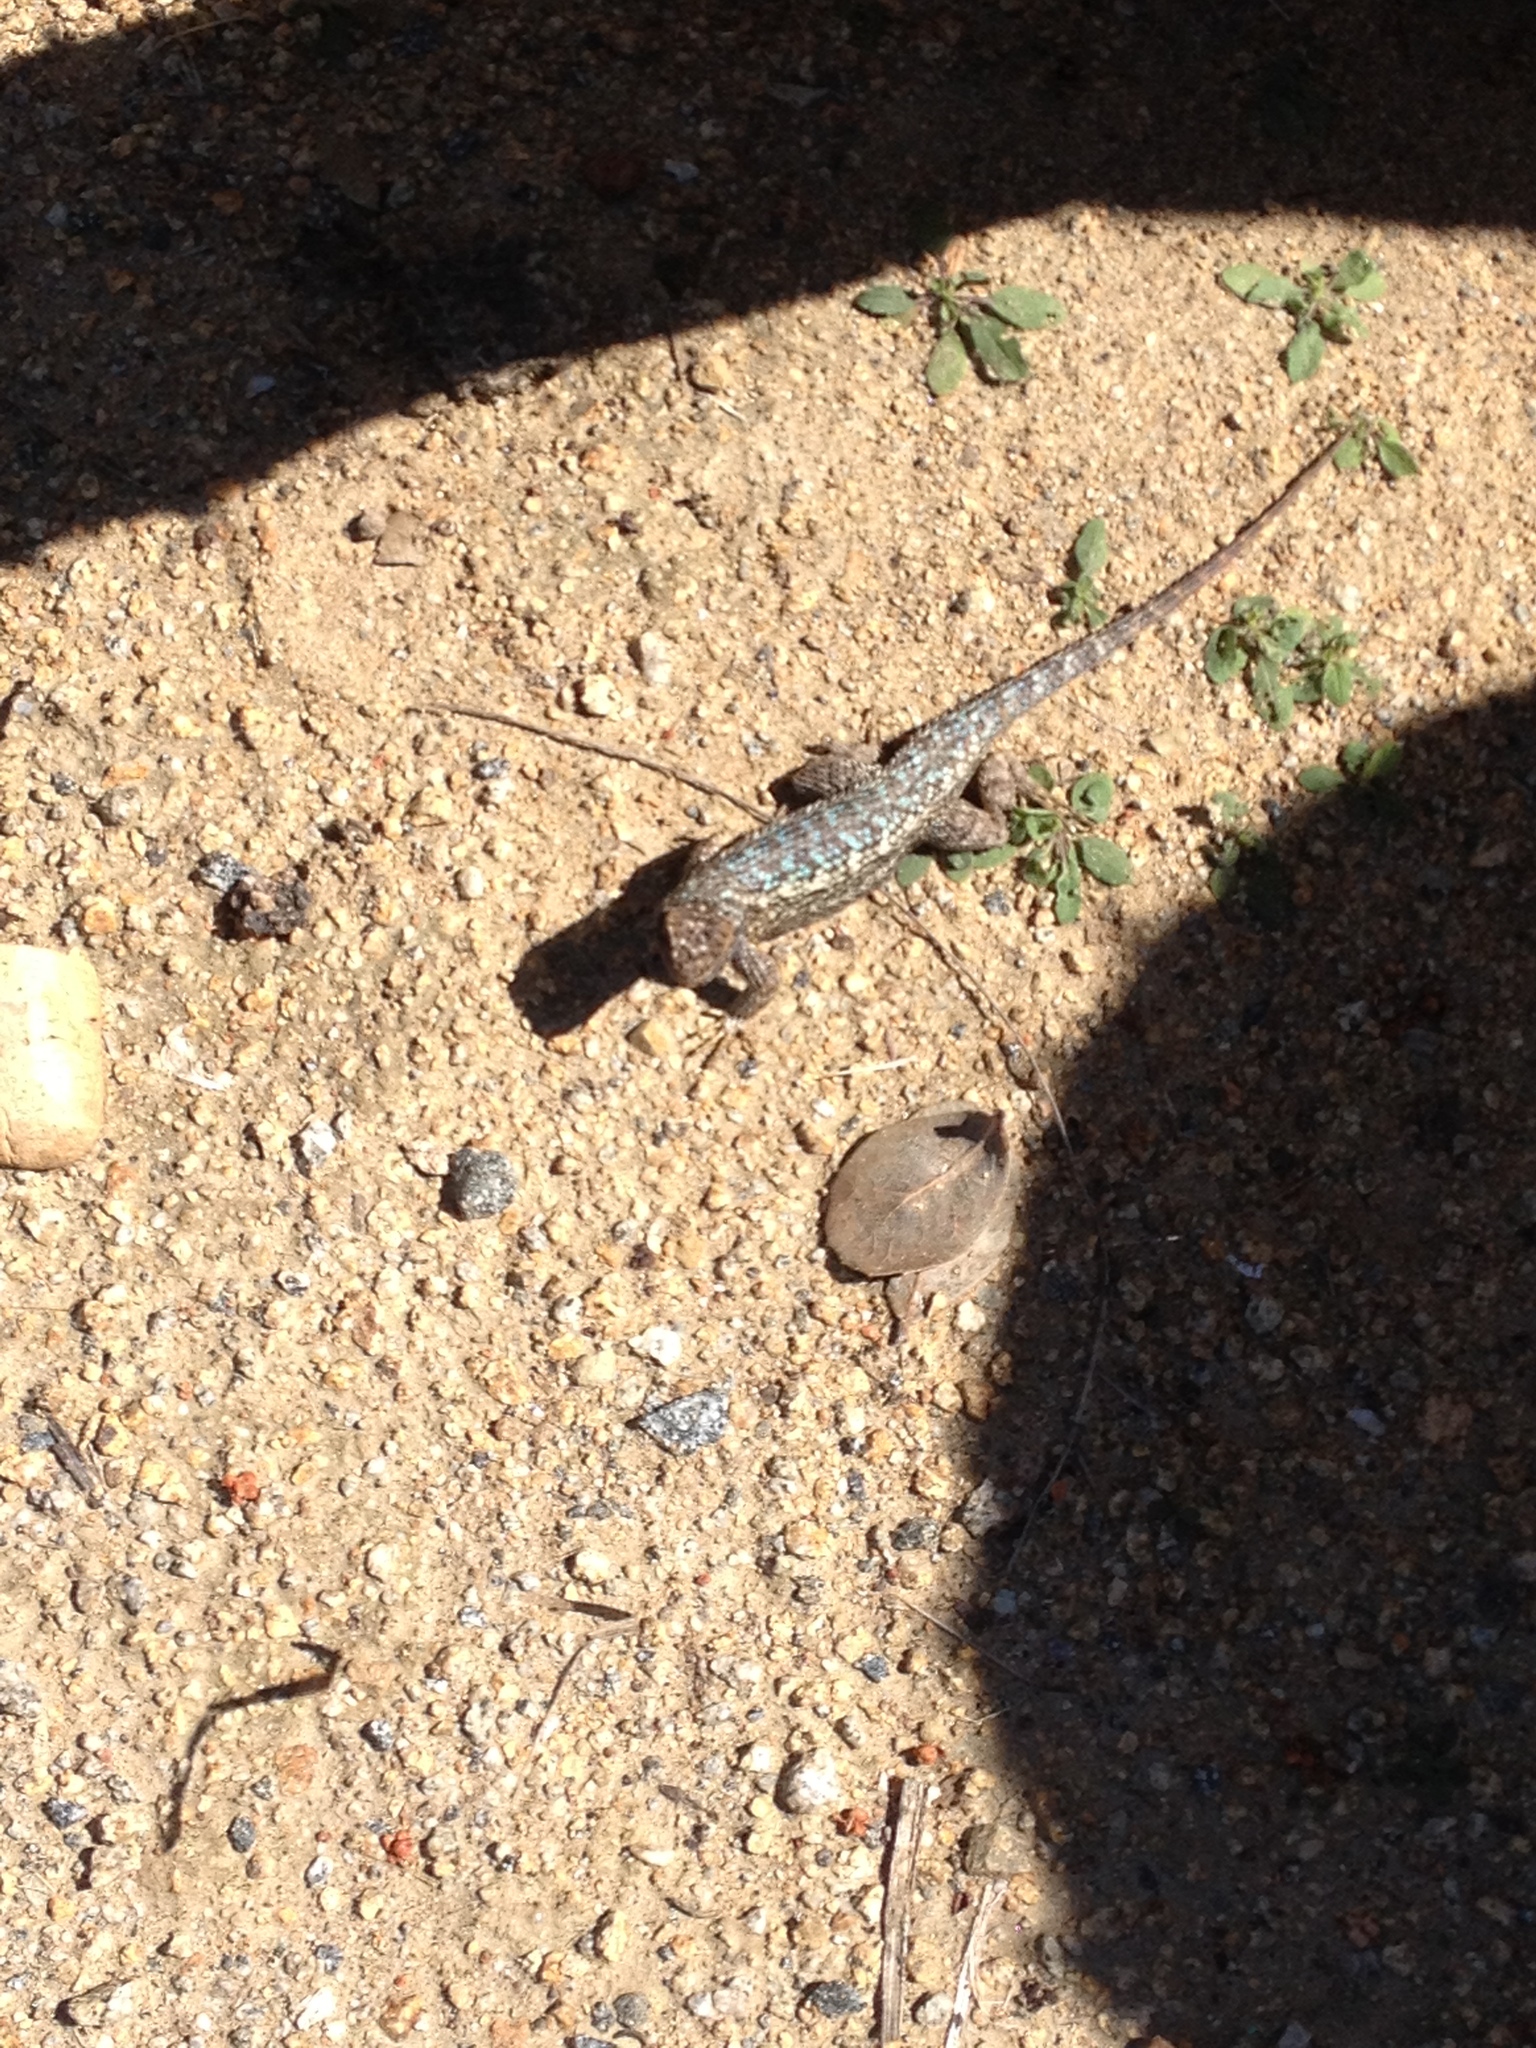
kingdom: Animalia
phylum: Chordata
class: Squamata
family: Phrynosomatidae
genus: Sceloporus
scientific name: Sceloporus occidentalis
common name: Western fence lizard
